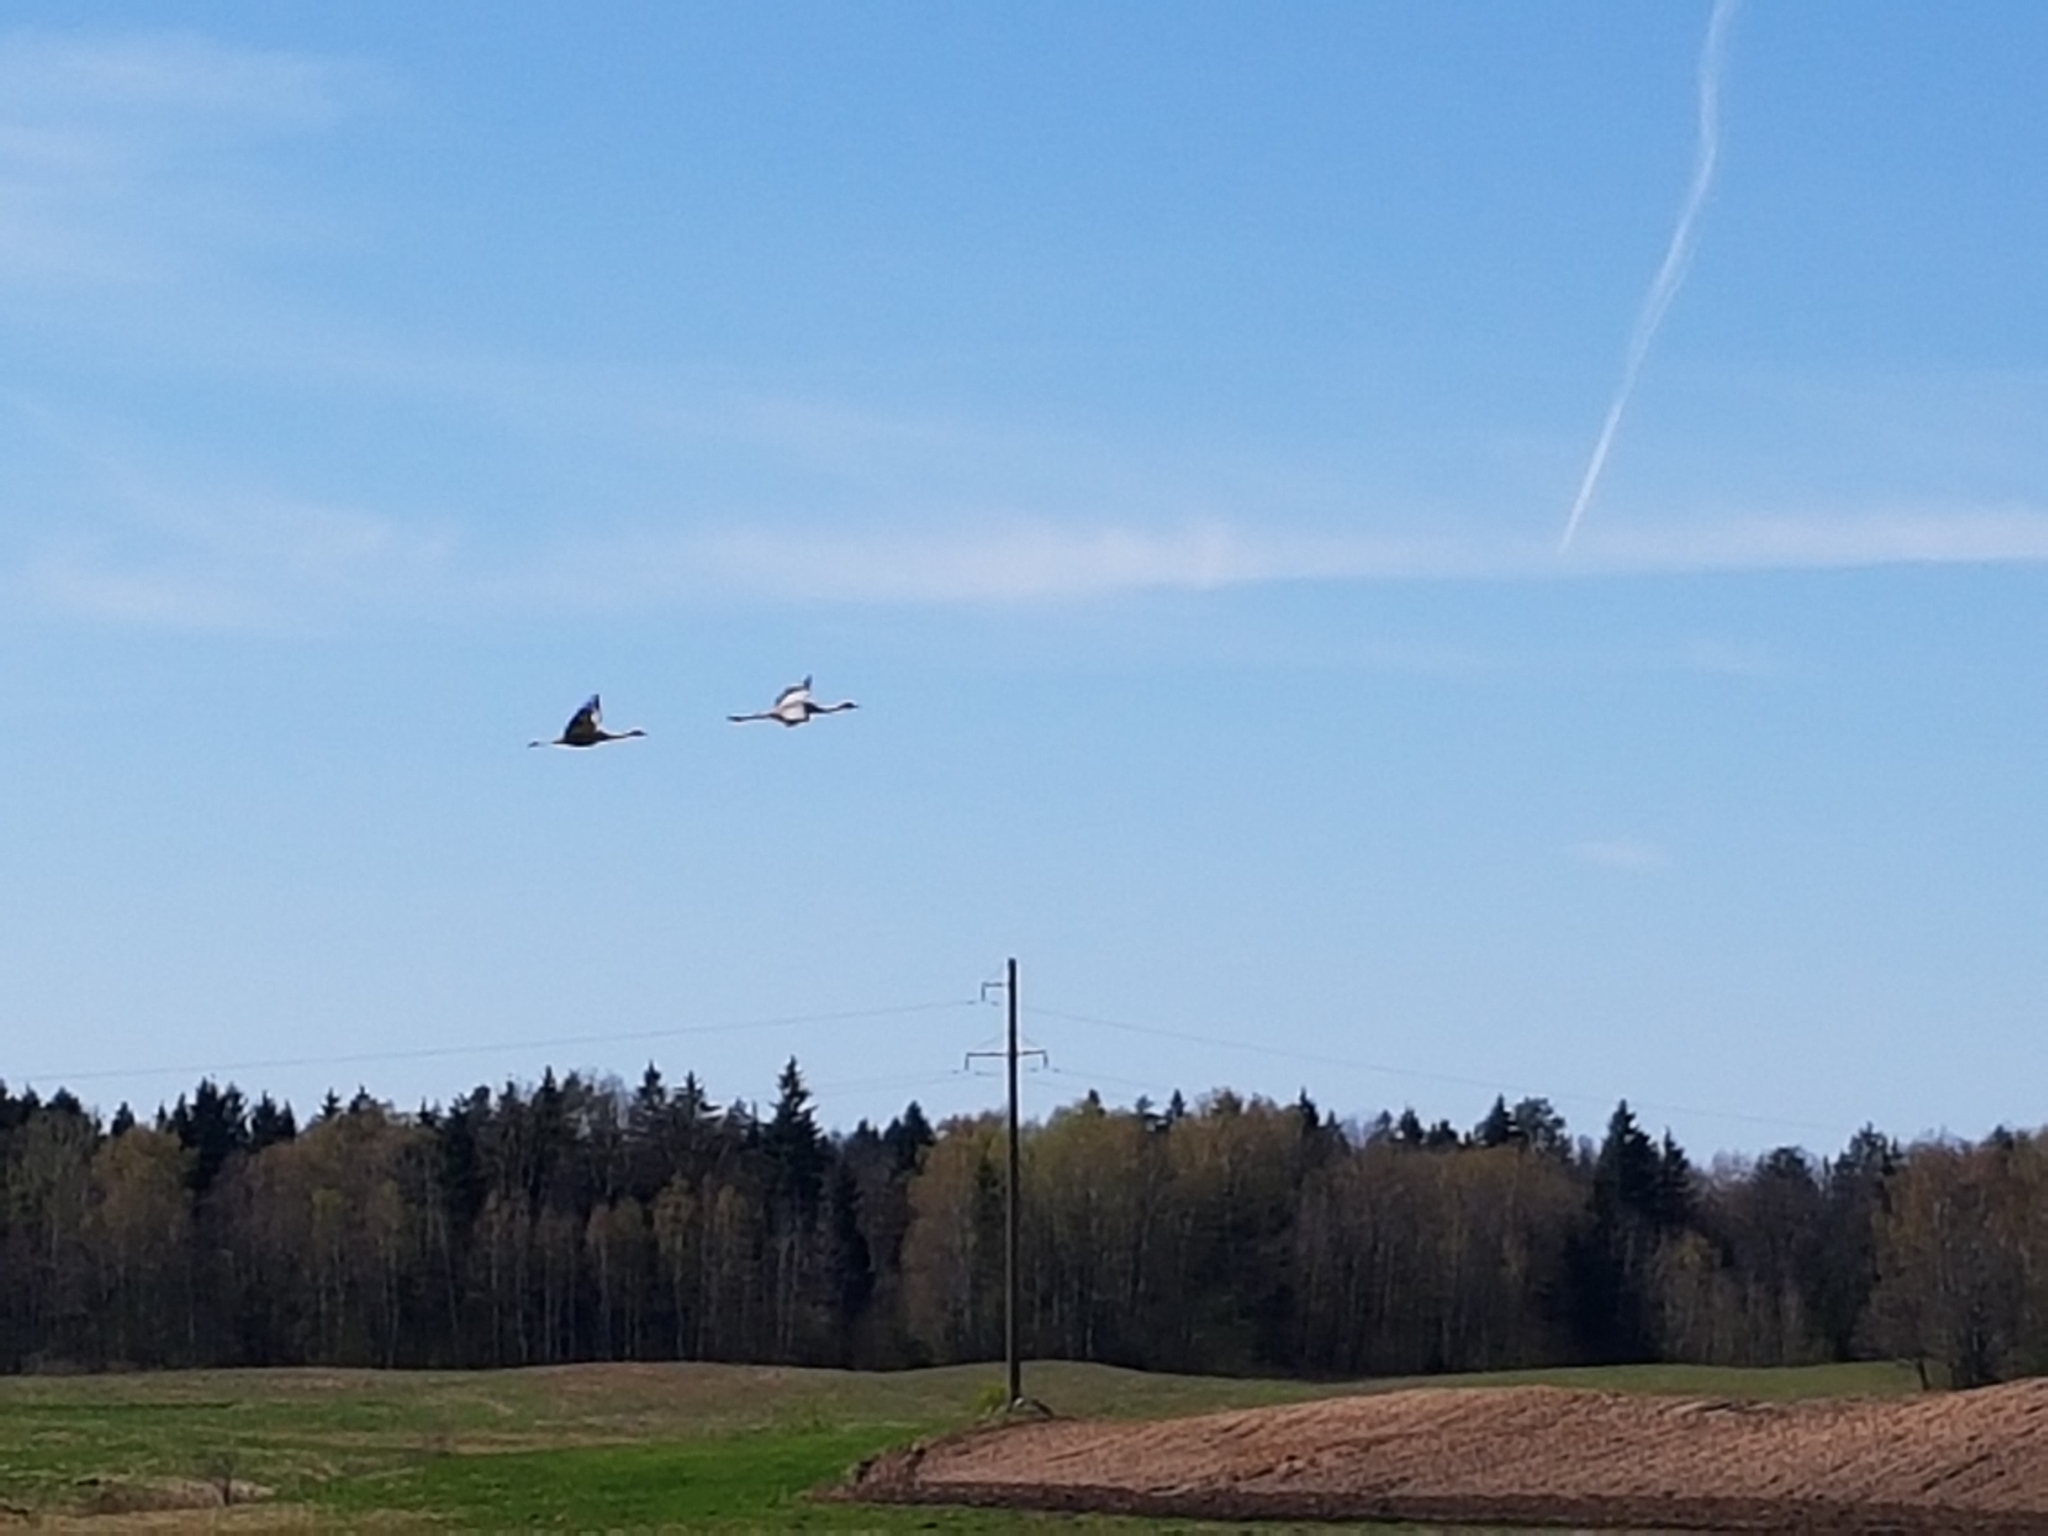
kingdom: Animalia
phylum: Chordata
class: Aves
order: Gruiformes
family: Gruidae
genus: Grus
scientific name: Grus grus
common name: Common crane
